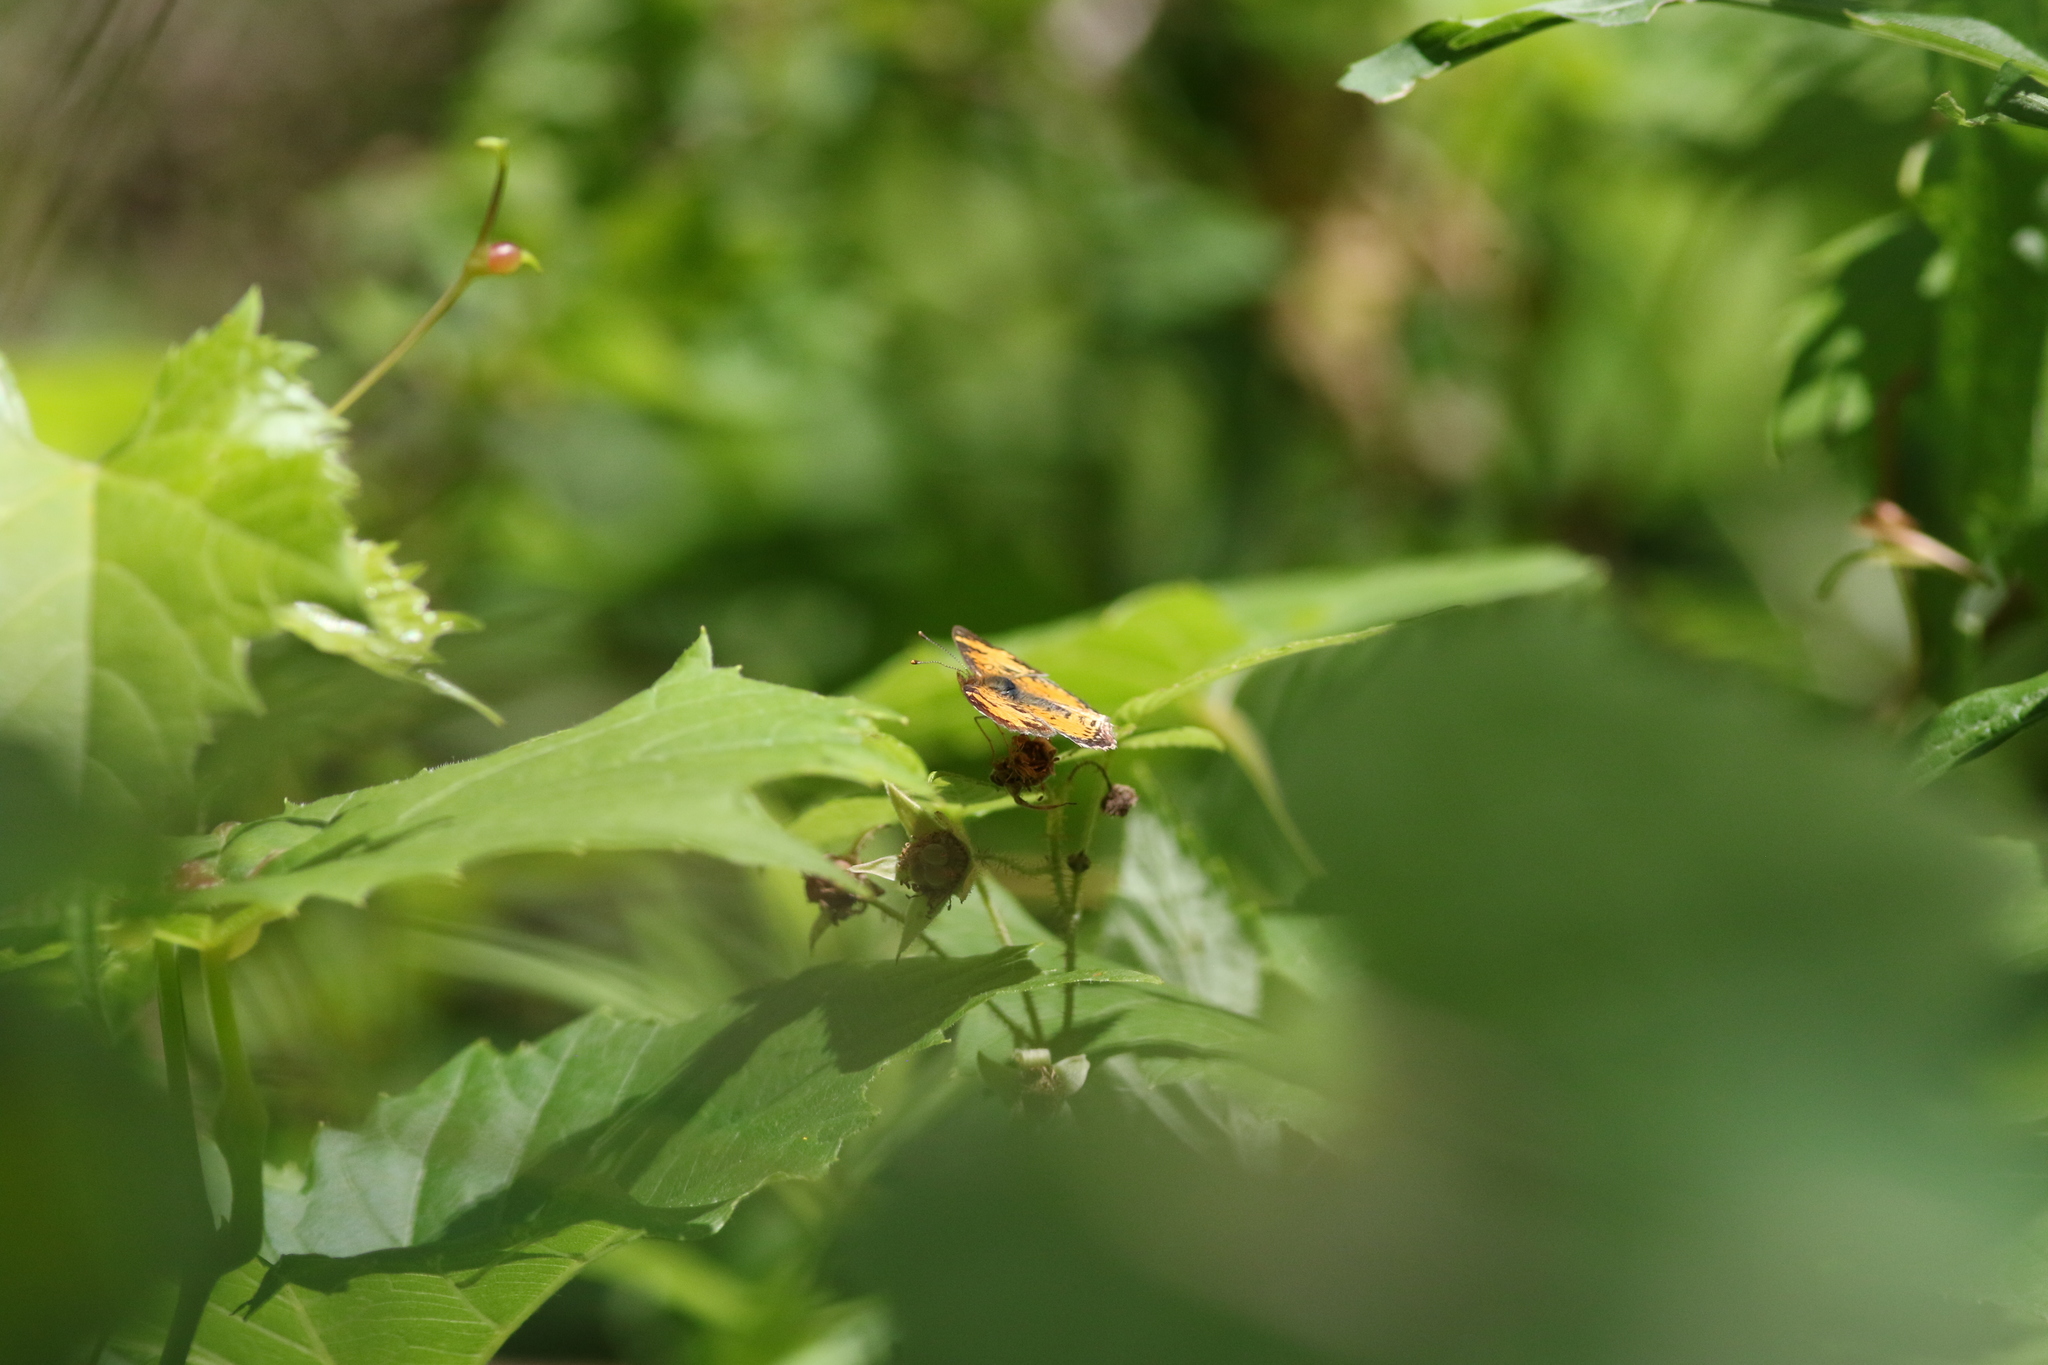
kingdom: Animalia
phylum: Arthropoda
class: Insecta
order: Lepidoptera
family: Nymphalidae
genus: Phyciodes
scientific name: Phyciodes tharos
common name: Pearl crescent
